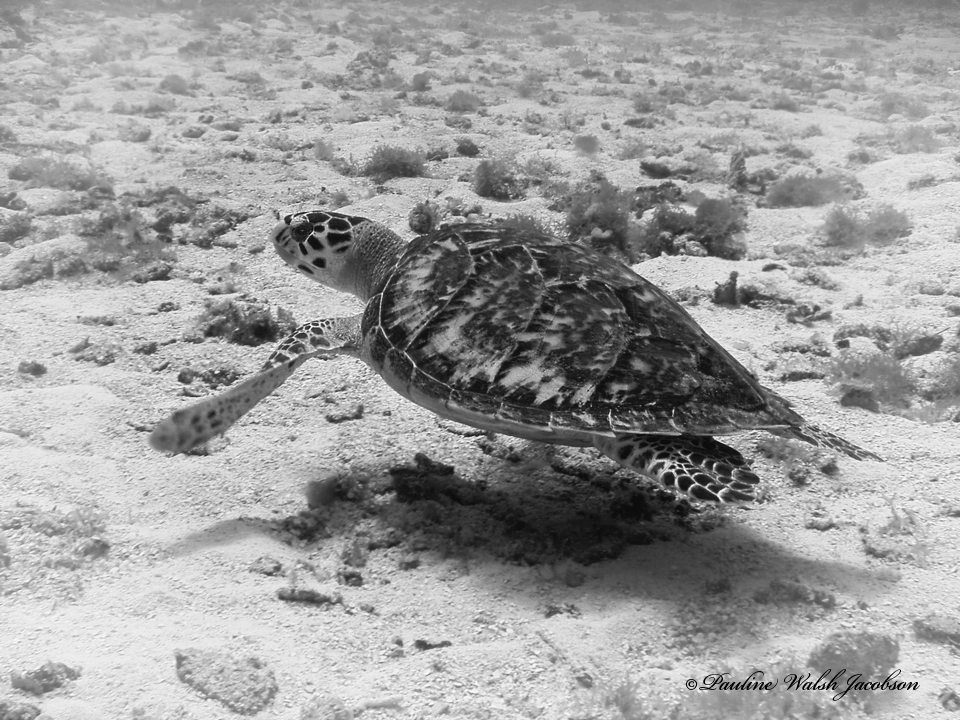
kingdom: Animalia
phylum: Chordata
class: Testudines
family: Cheloniidae
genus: Eretmochelys
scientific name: Eretmochelys imbricata
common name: Hawksbill turtle
